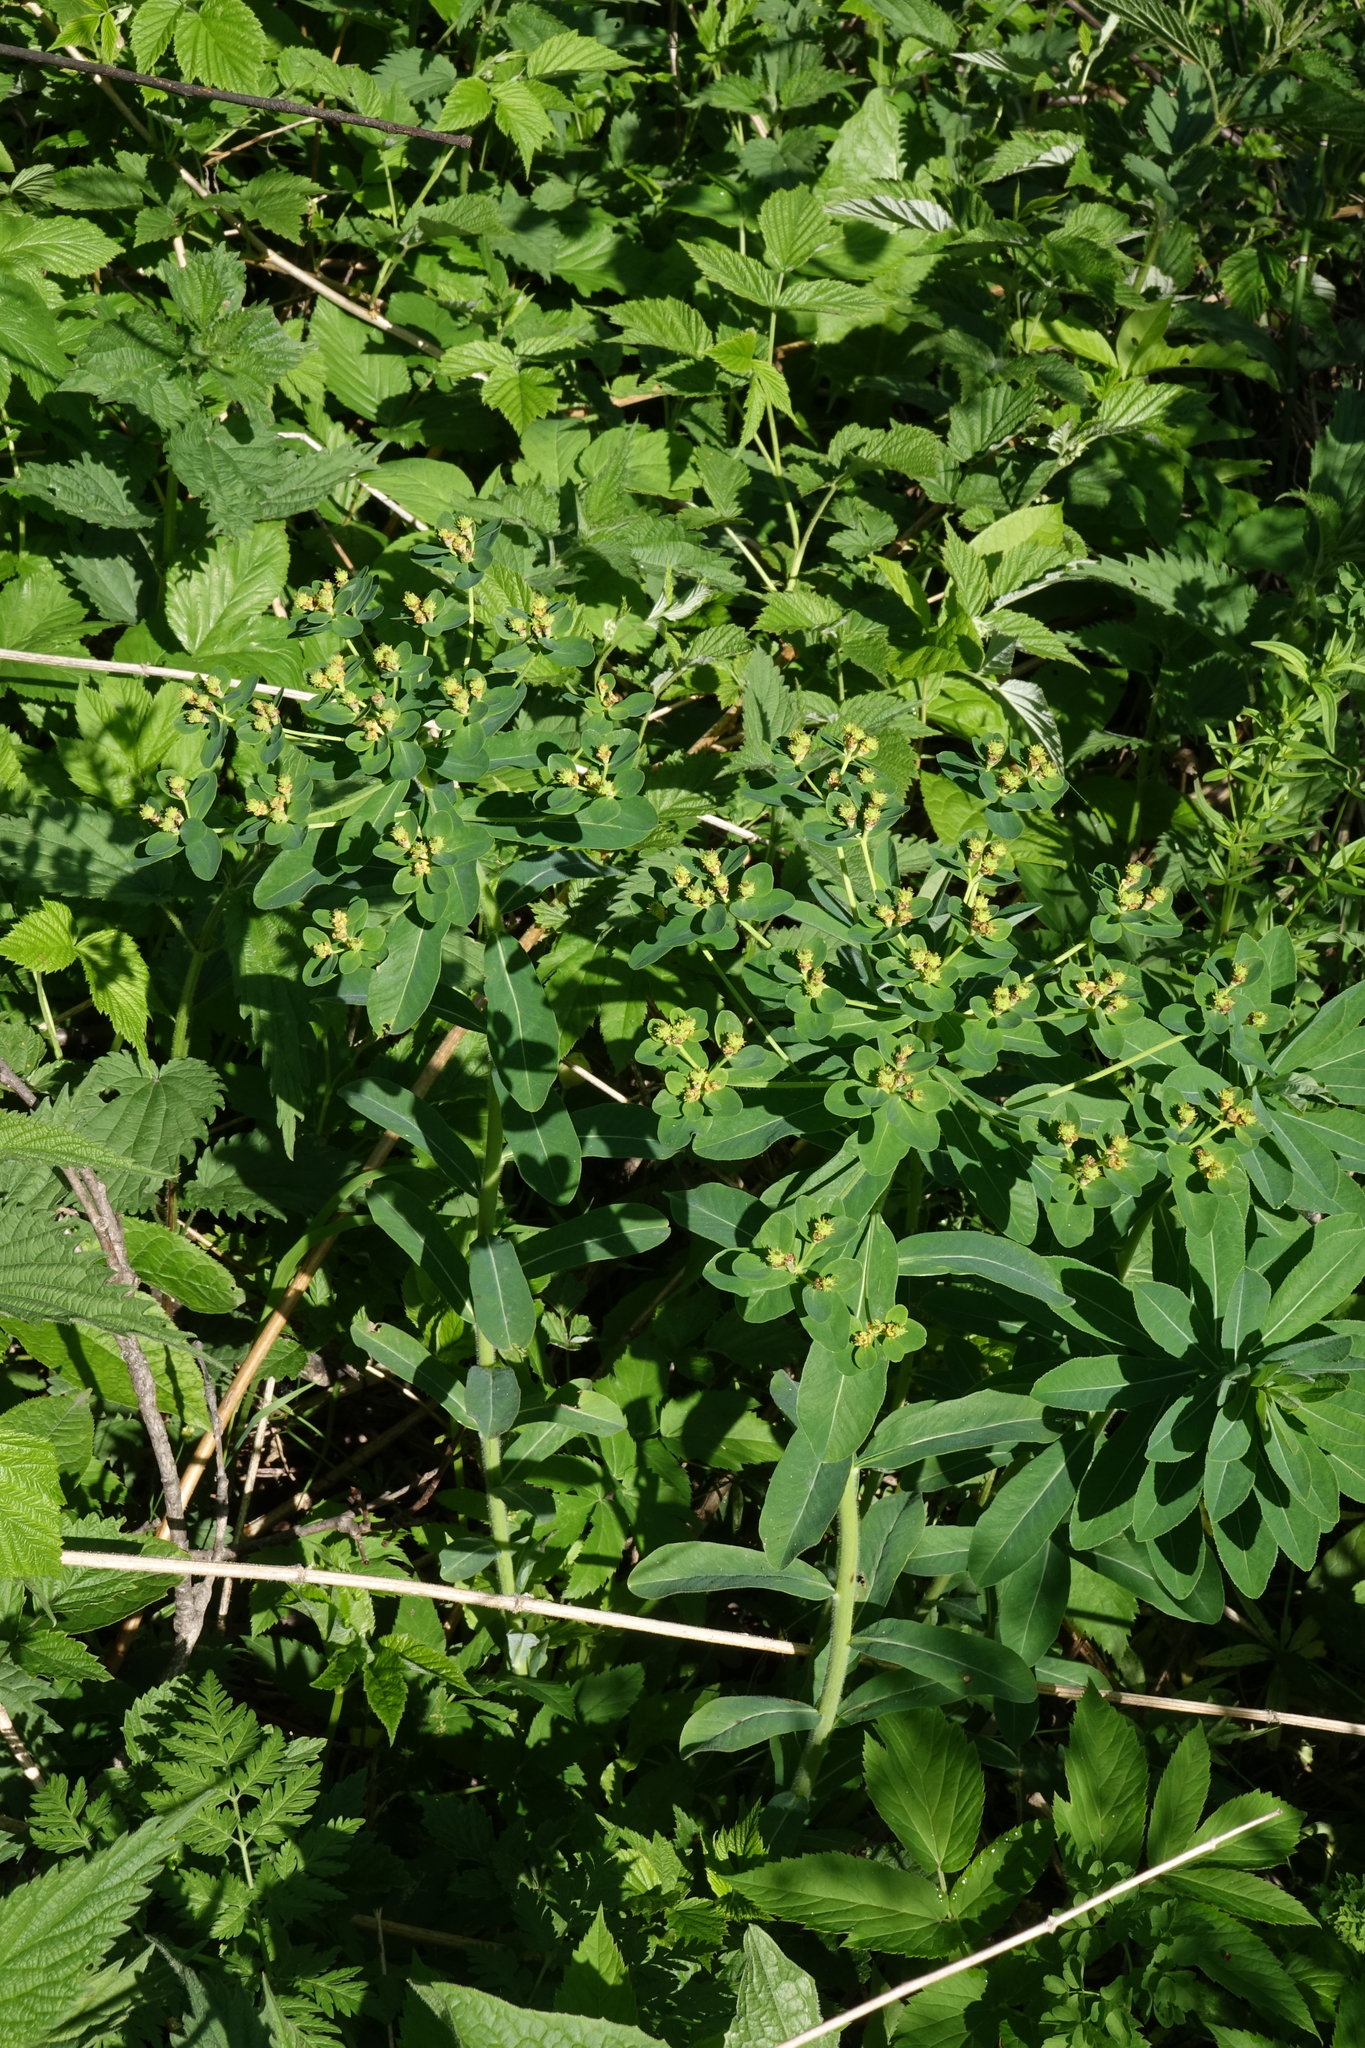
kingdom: Plantae
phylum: Tracheophyta
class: Magnoliopsida
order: Malpighiales
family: Euphorbiaceae
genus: Euphorbia
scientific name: Euphorbia pilosa
